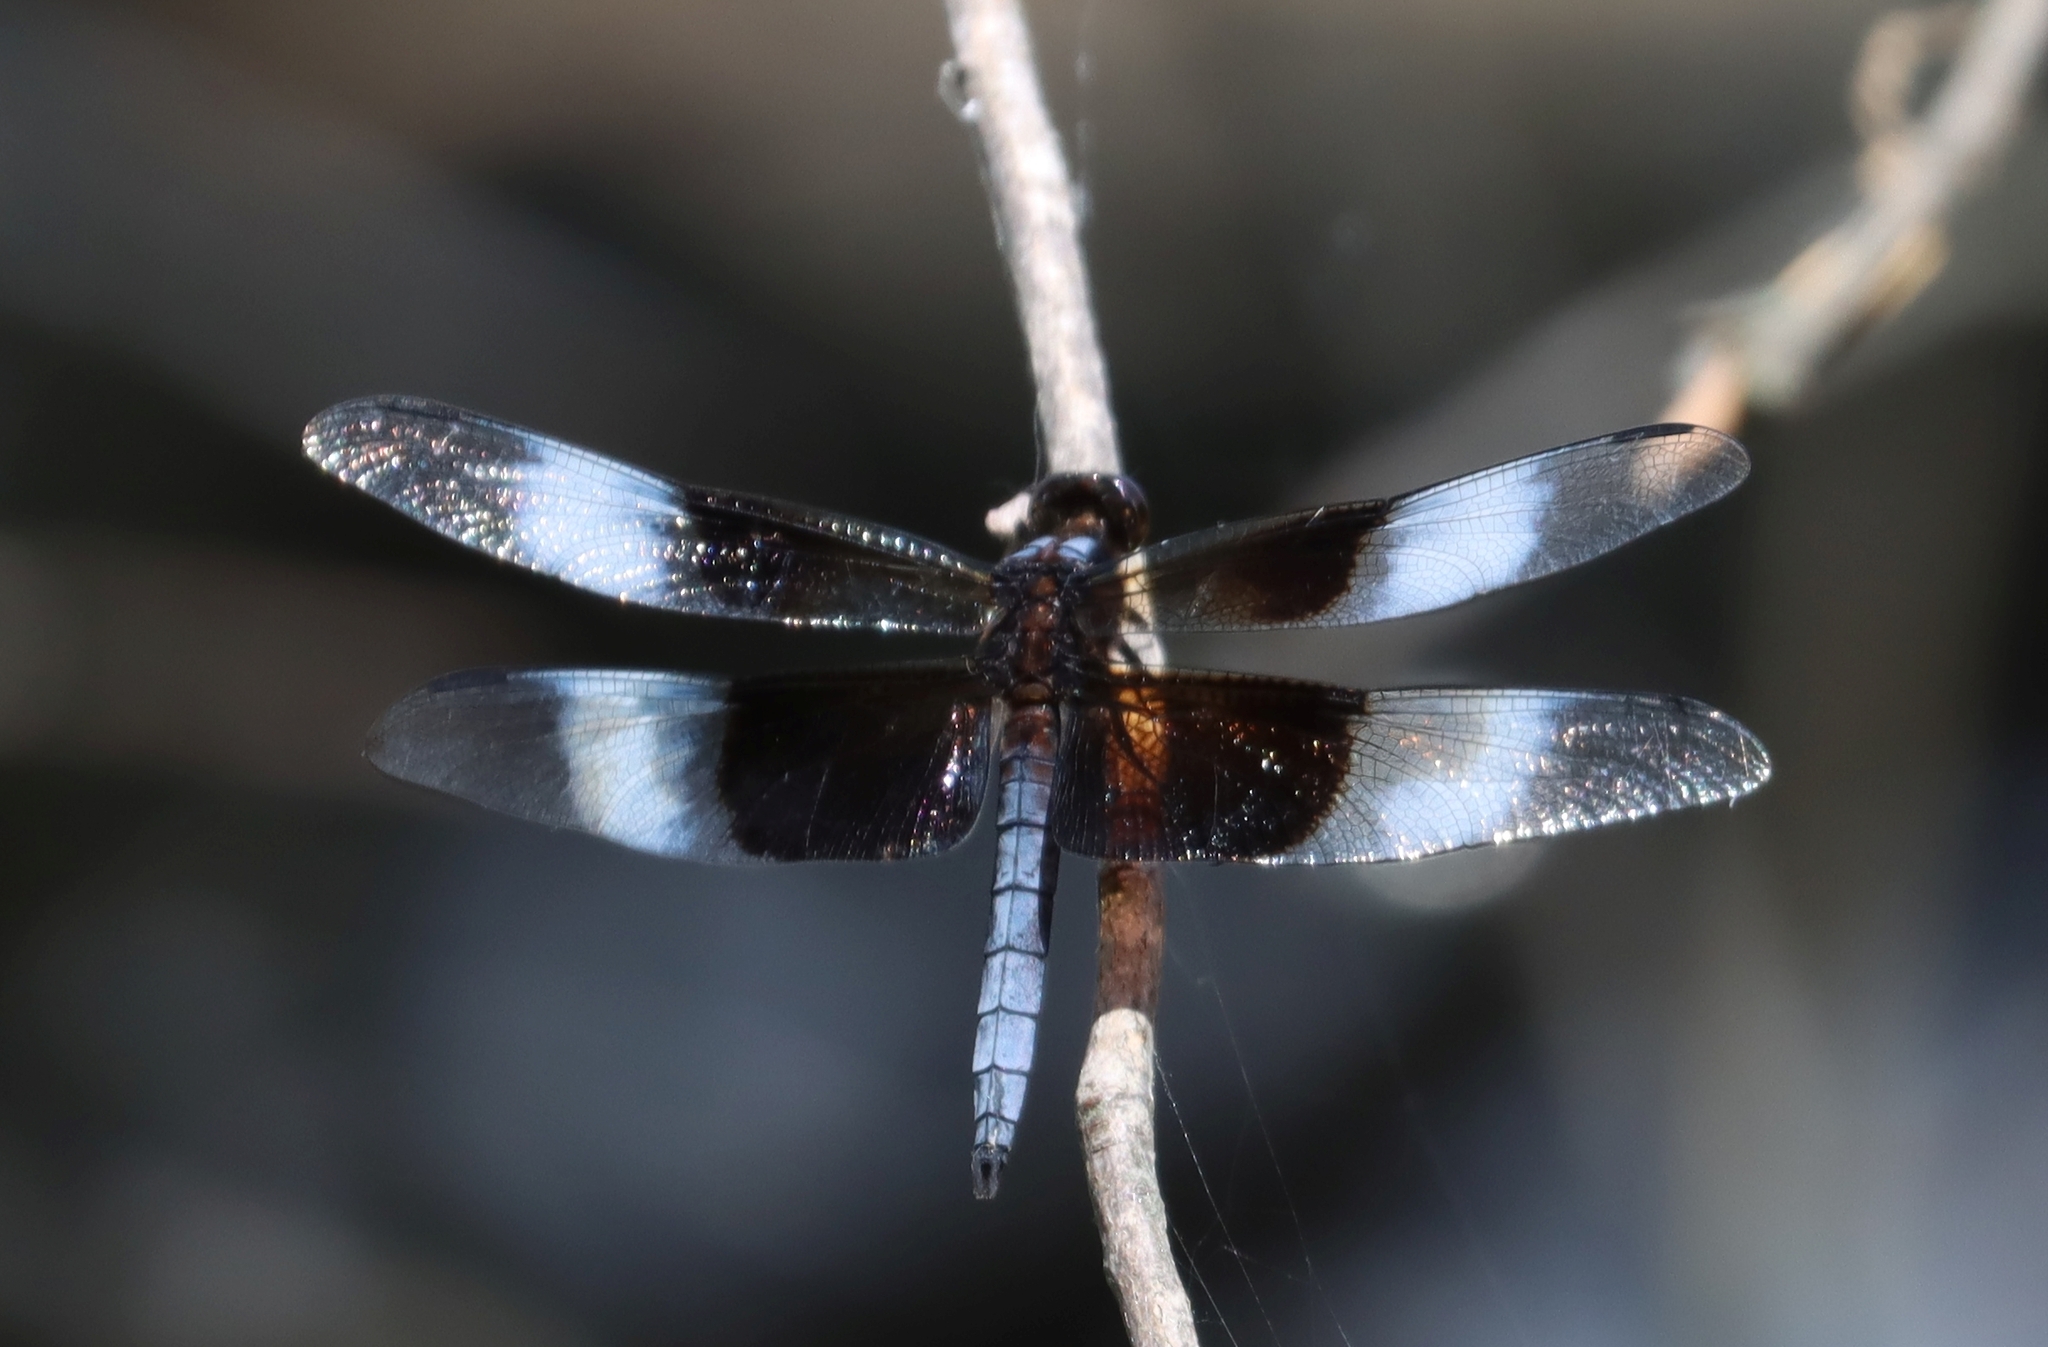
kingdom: Animalia
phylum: Arthropoda
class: Insecta
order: Odonata
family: Libellulidae
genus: Libellula
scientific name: Libellula luctuosa
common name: Widow skimmer
